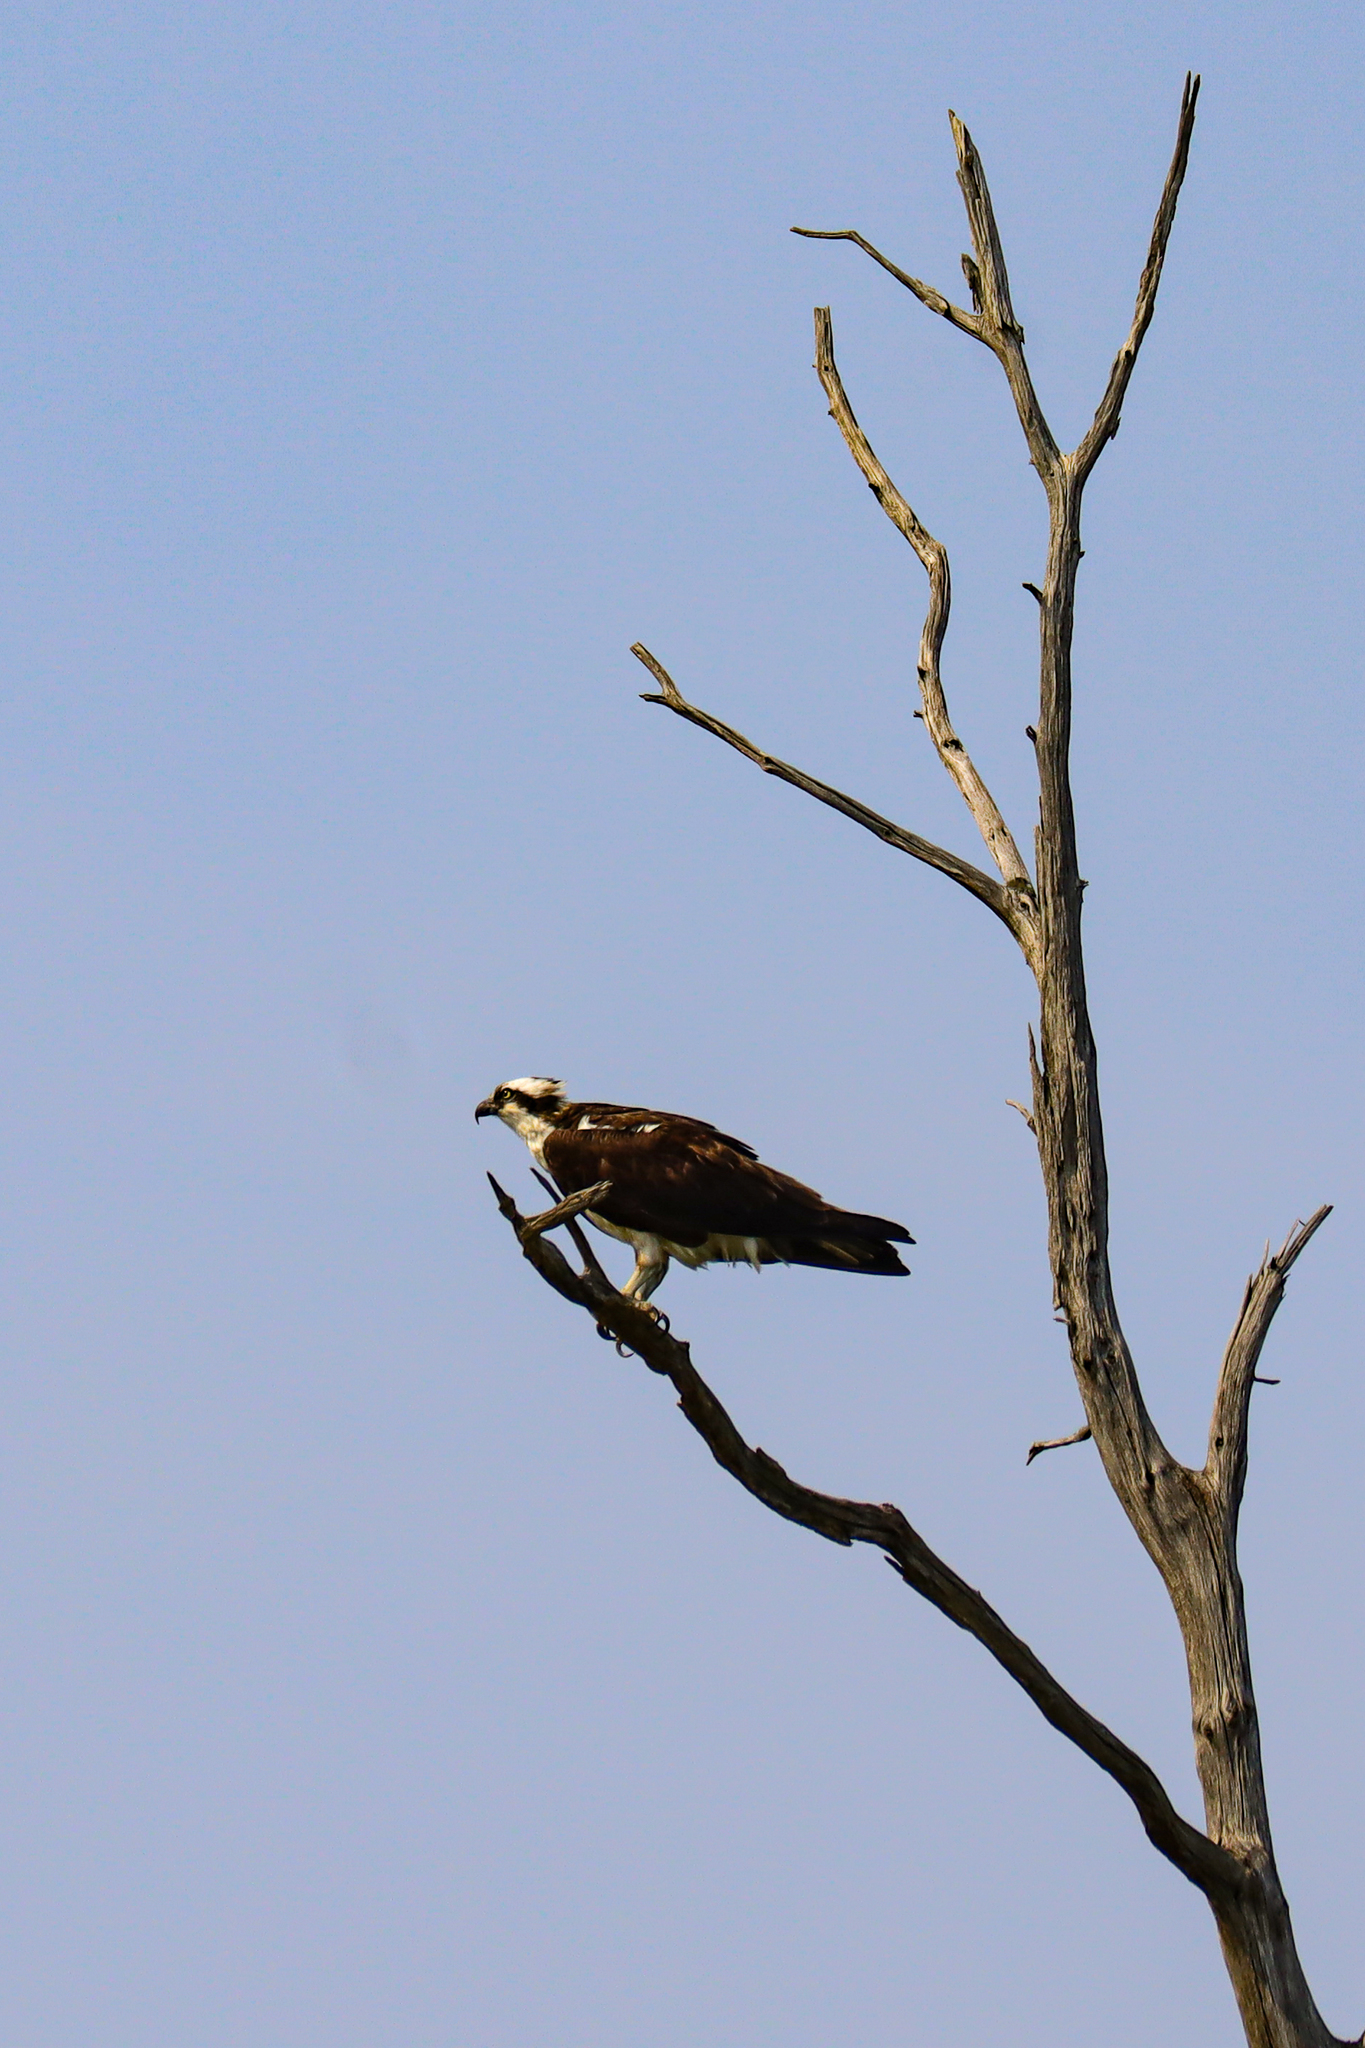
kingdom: Animalia
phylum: Chordata
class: Aves
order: Accipitriformes
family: Pandionidae
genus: Pandion
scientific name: Pandion haliaetus
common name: Osprey
